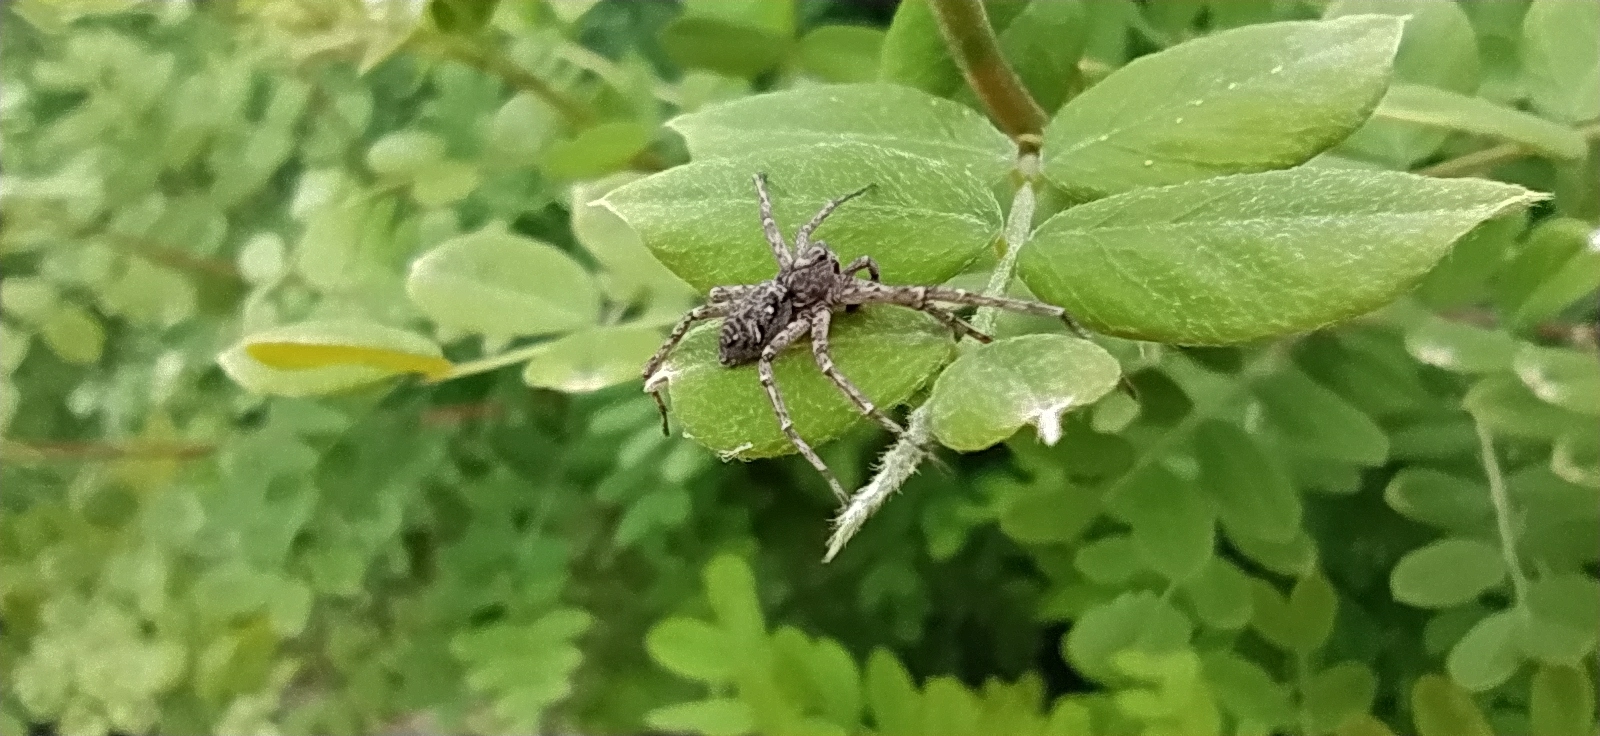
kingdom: Animalia
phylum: Arthropoda
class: Arachnida
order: Araneae
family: Philodromidae
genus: Philodromus
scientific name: Philodromus emarginatus
